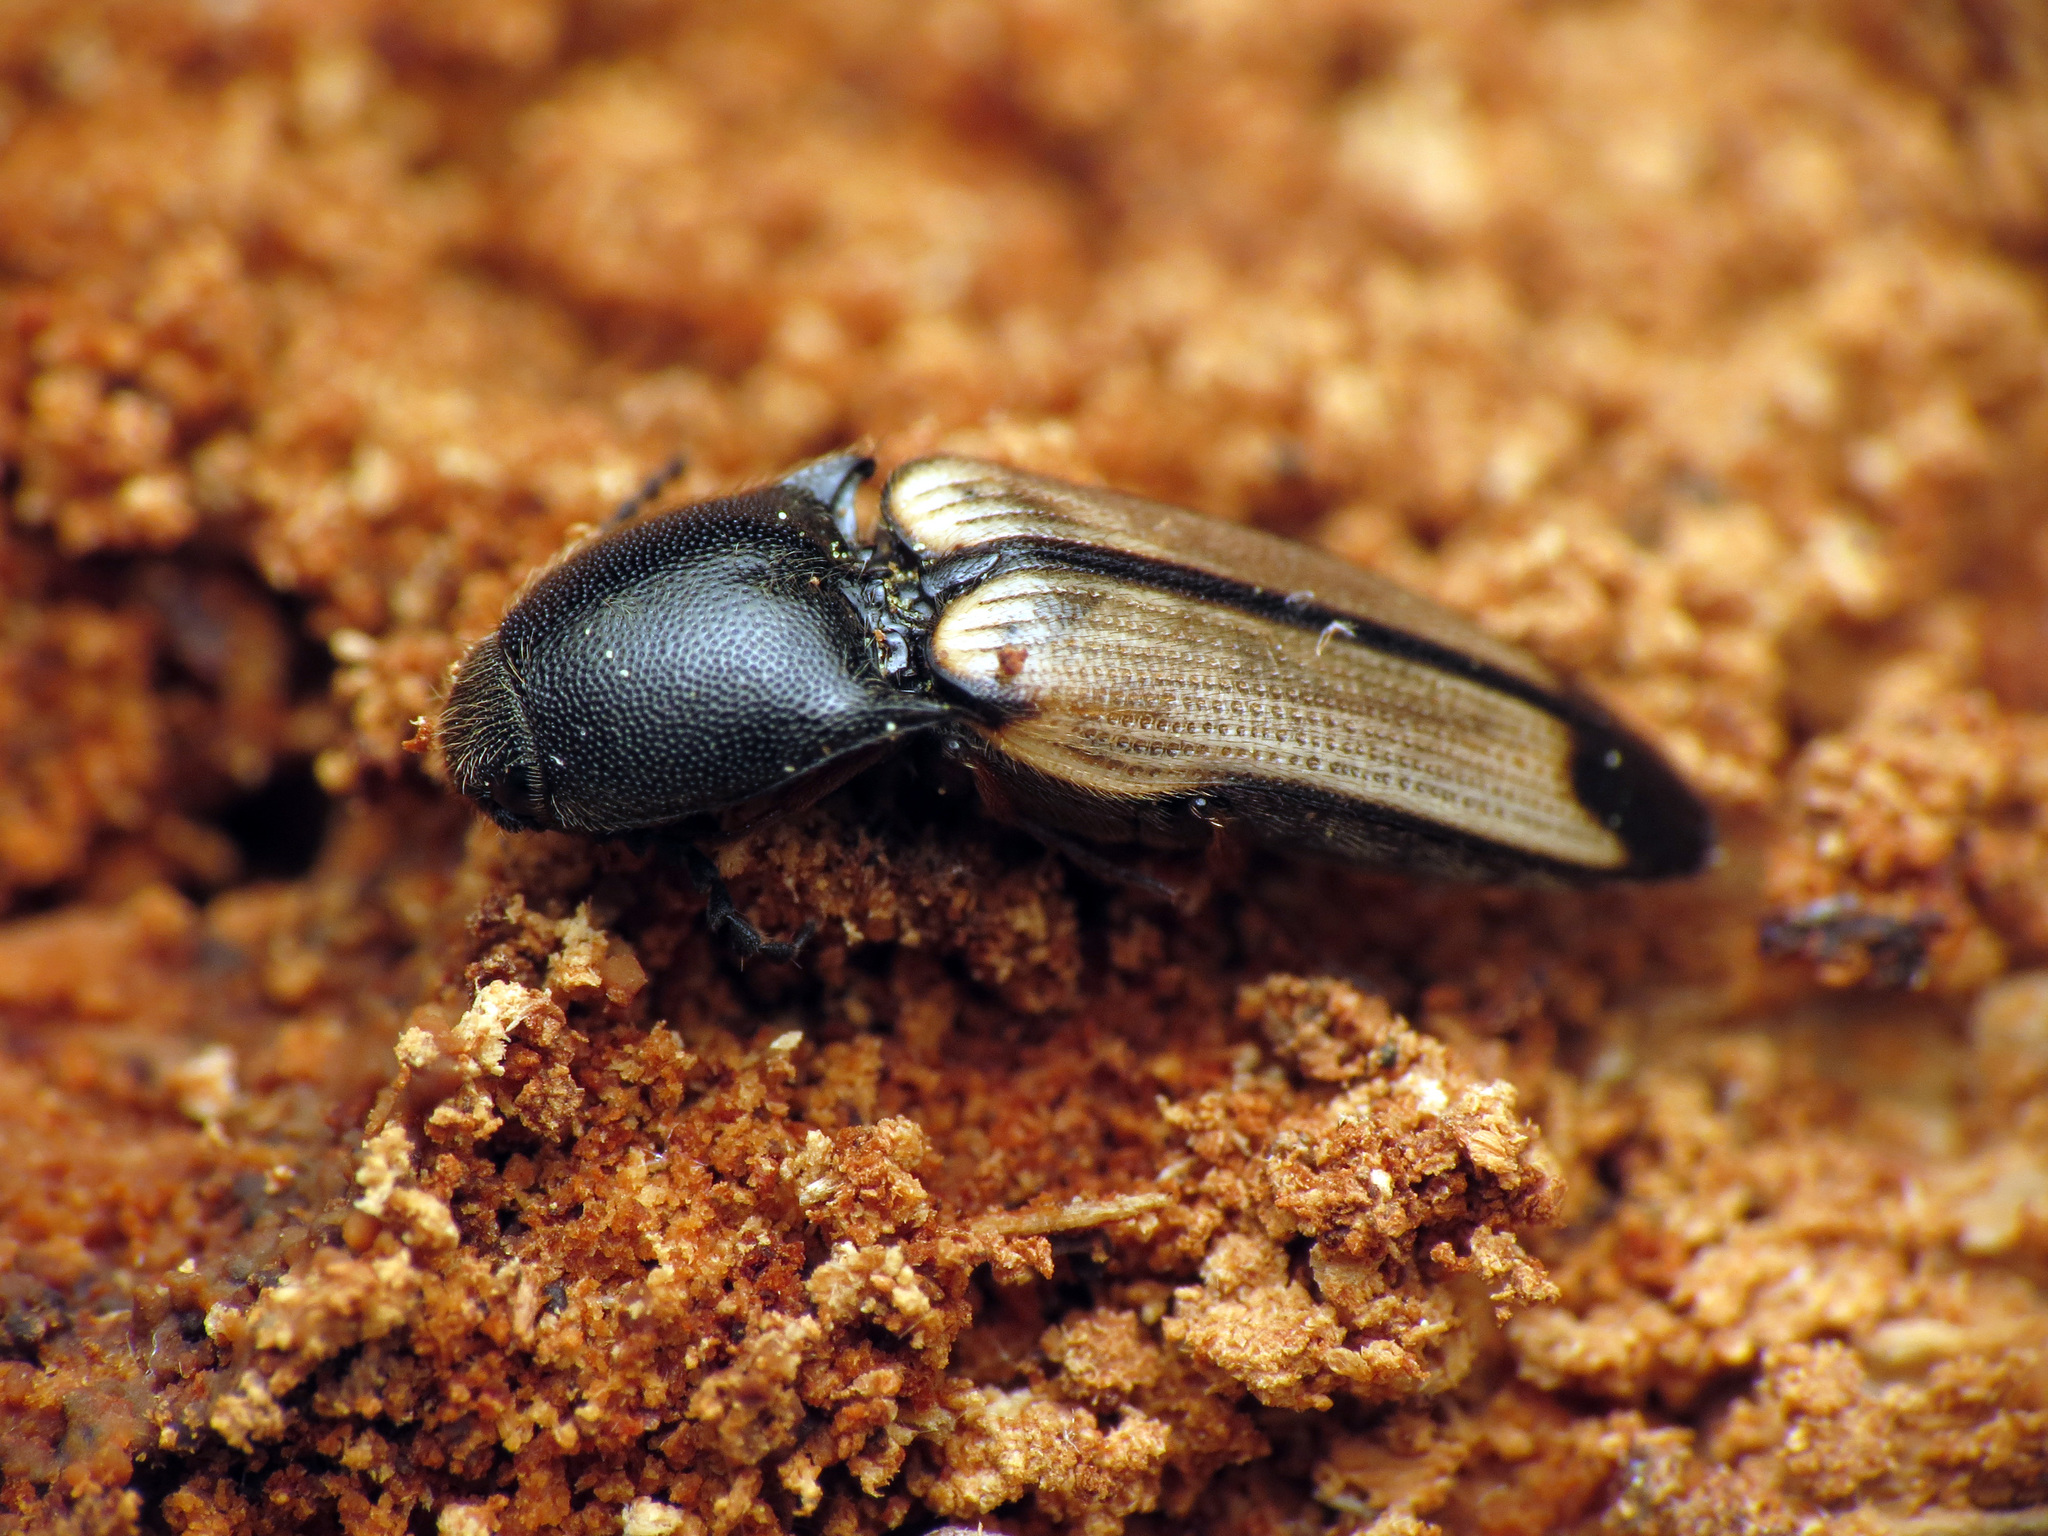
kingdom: Animalia
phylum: Arthropoda
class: Insecta
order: Coleoptera
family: Elateridae
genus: Ampedus
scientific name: Ampedus linteus
